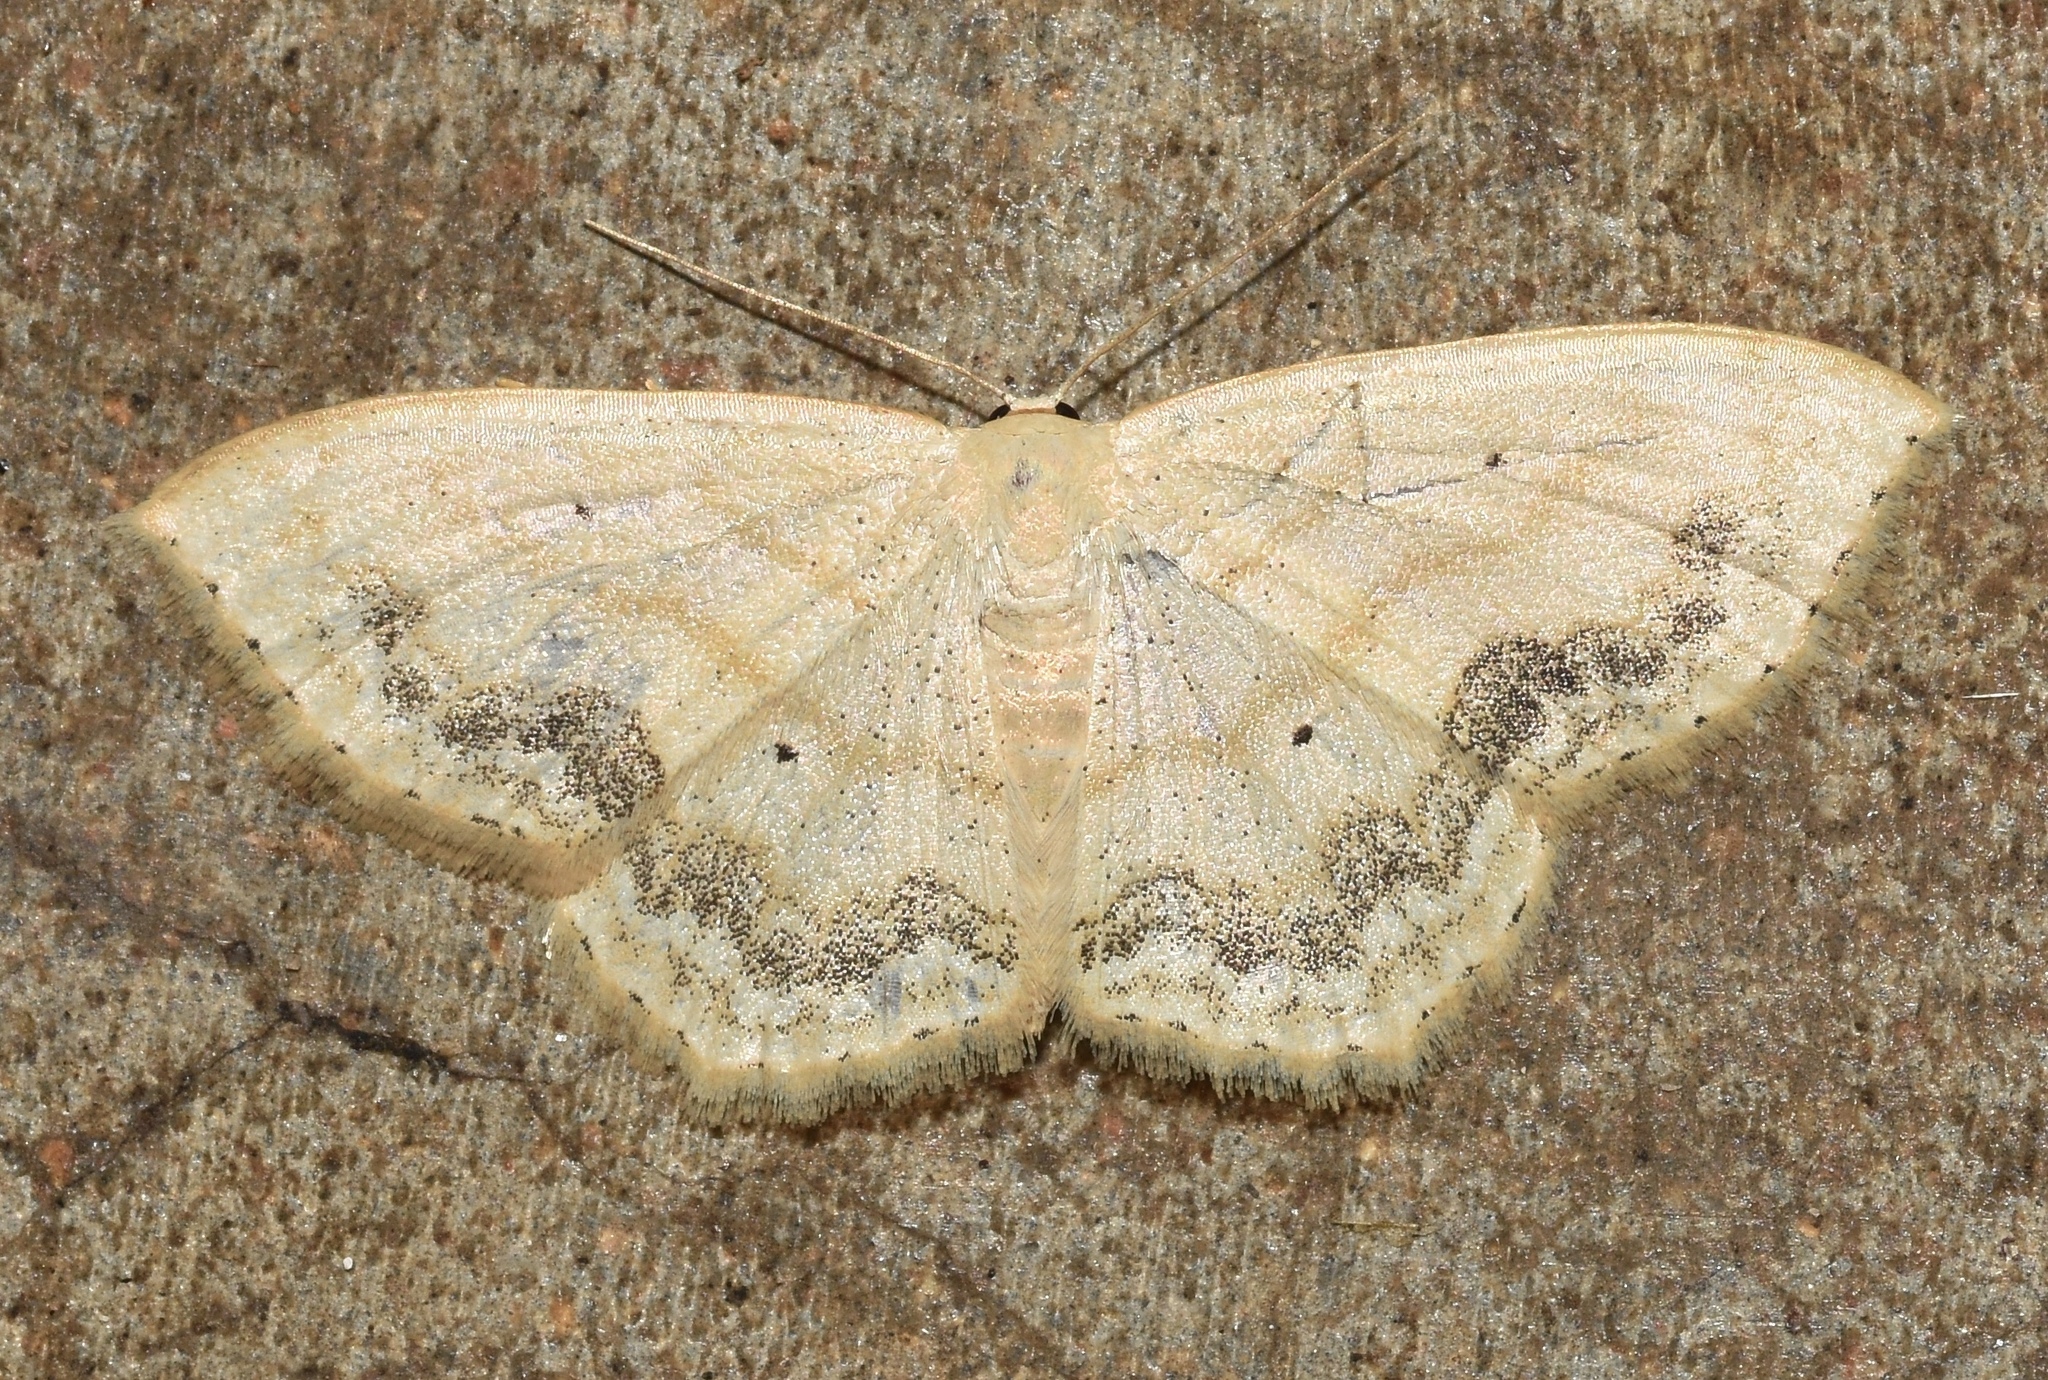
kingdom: Animalia
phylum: Arthropoda
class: Insecta
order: Lepidoptera
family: Geometridae
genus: Scopula
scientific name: Scopula limboundata
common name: Large lace border
